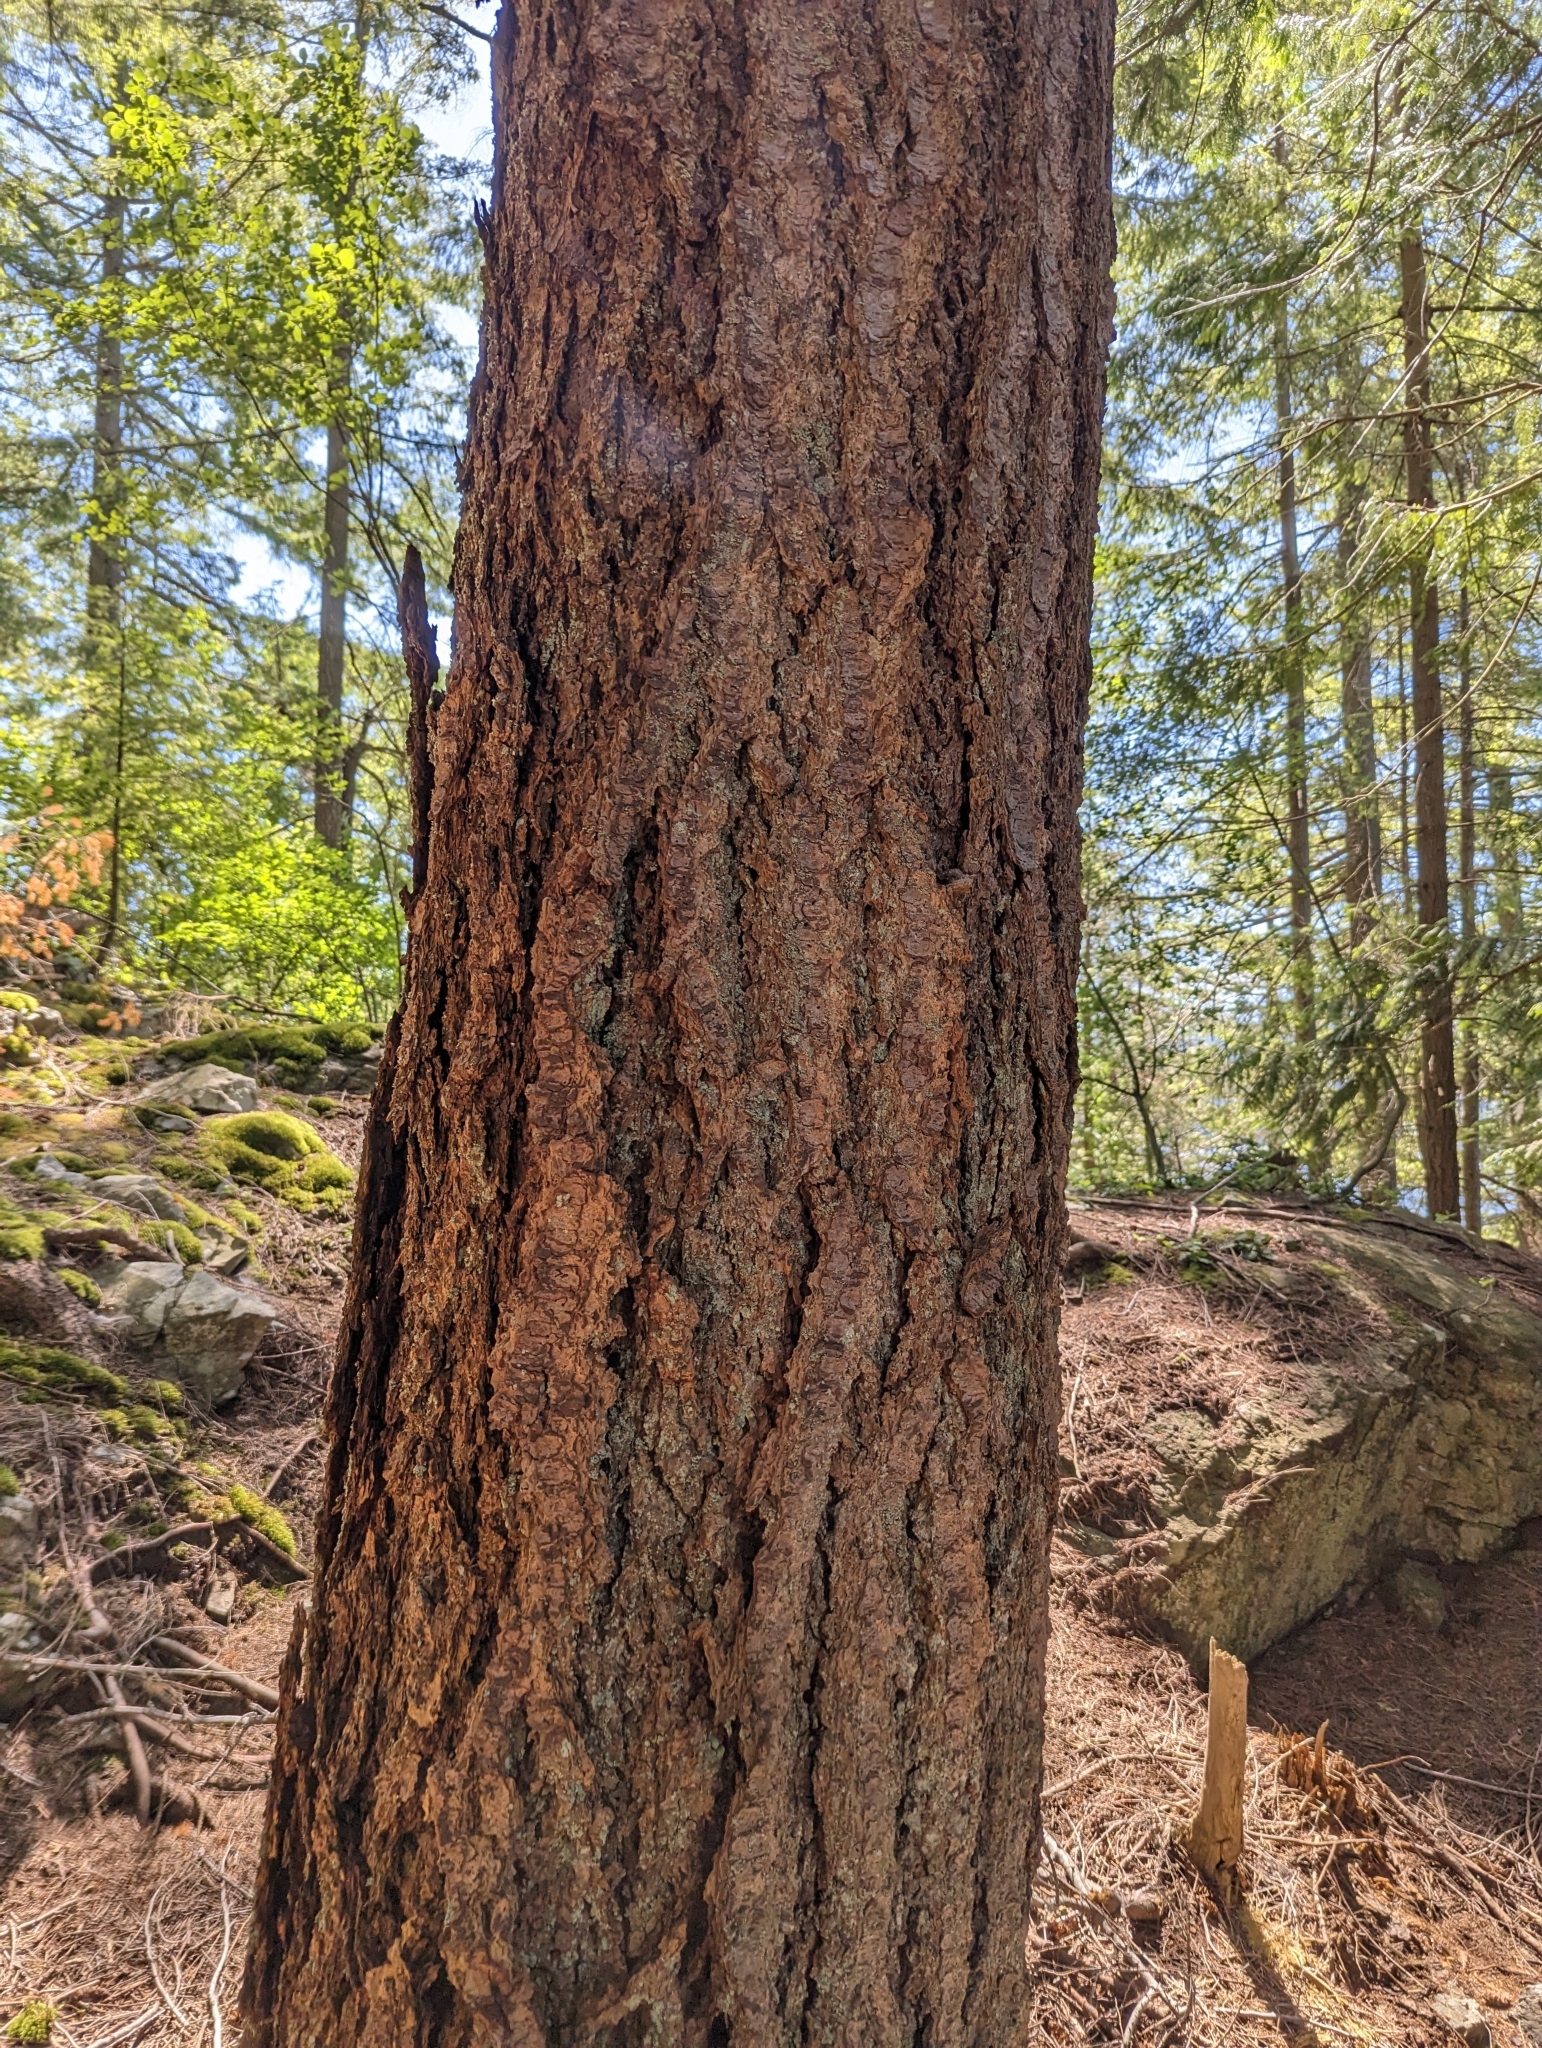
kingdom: Plantae
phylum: Tracheophyta
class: Pinopsida
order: Pinales
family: Pinaceae
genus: Pseudotsuga
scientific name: Pseudotsuga menziesii
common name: Douglas fir
